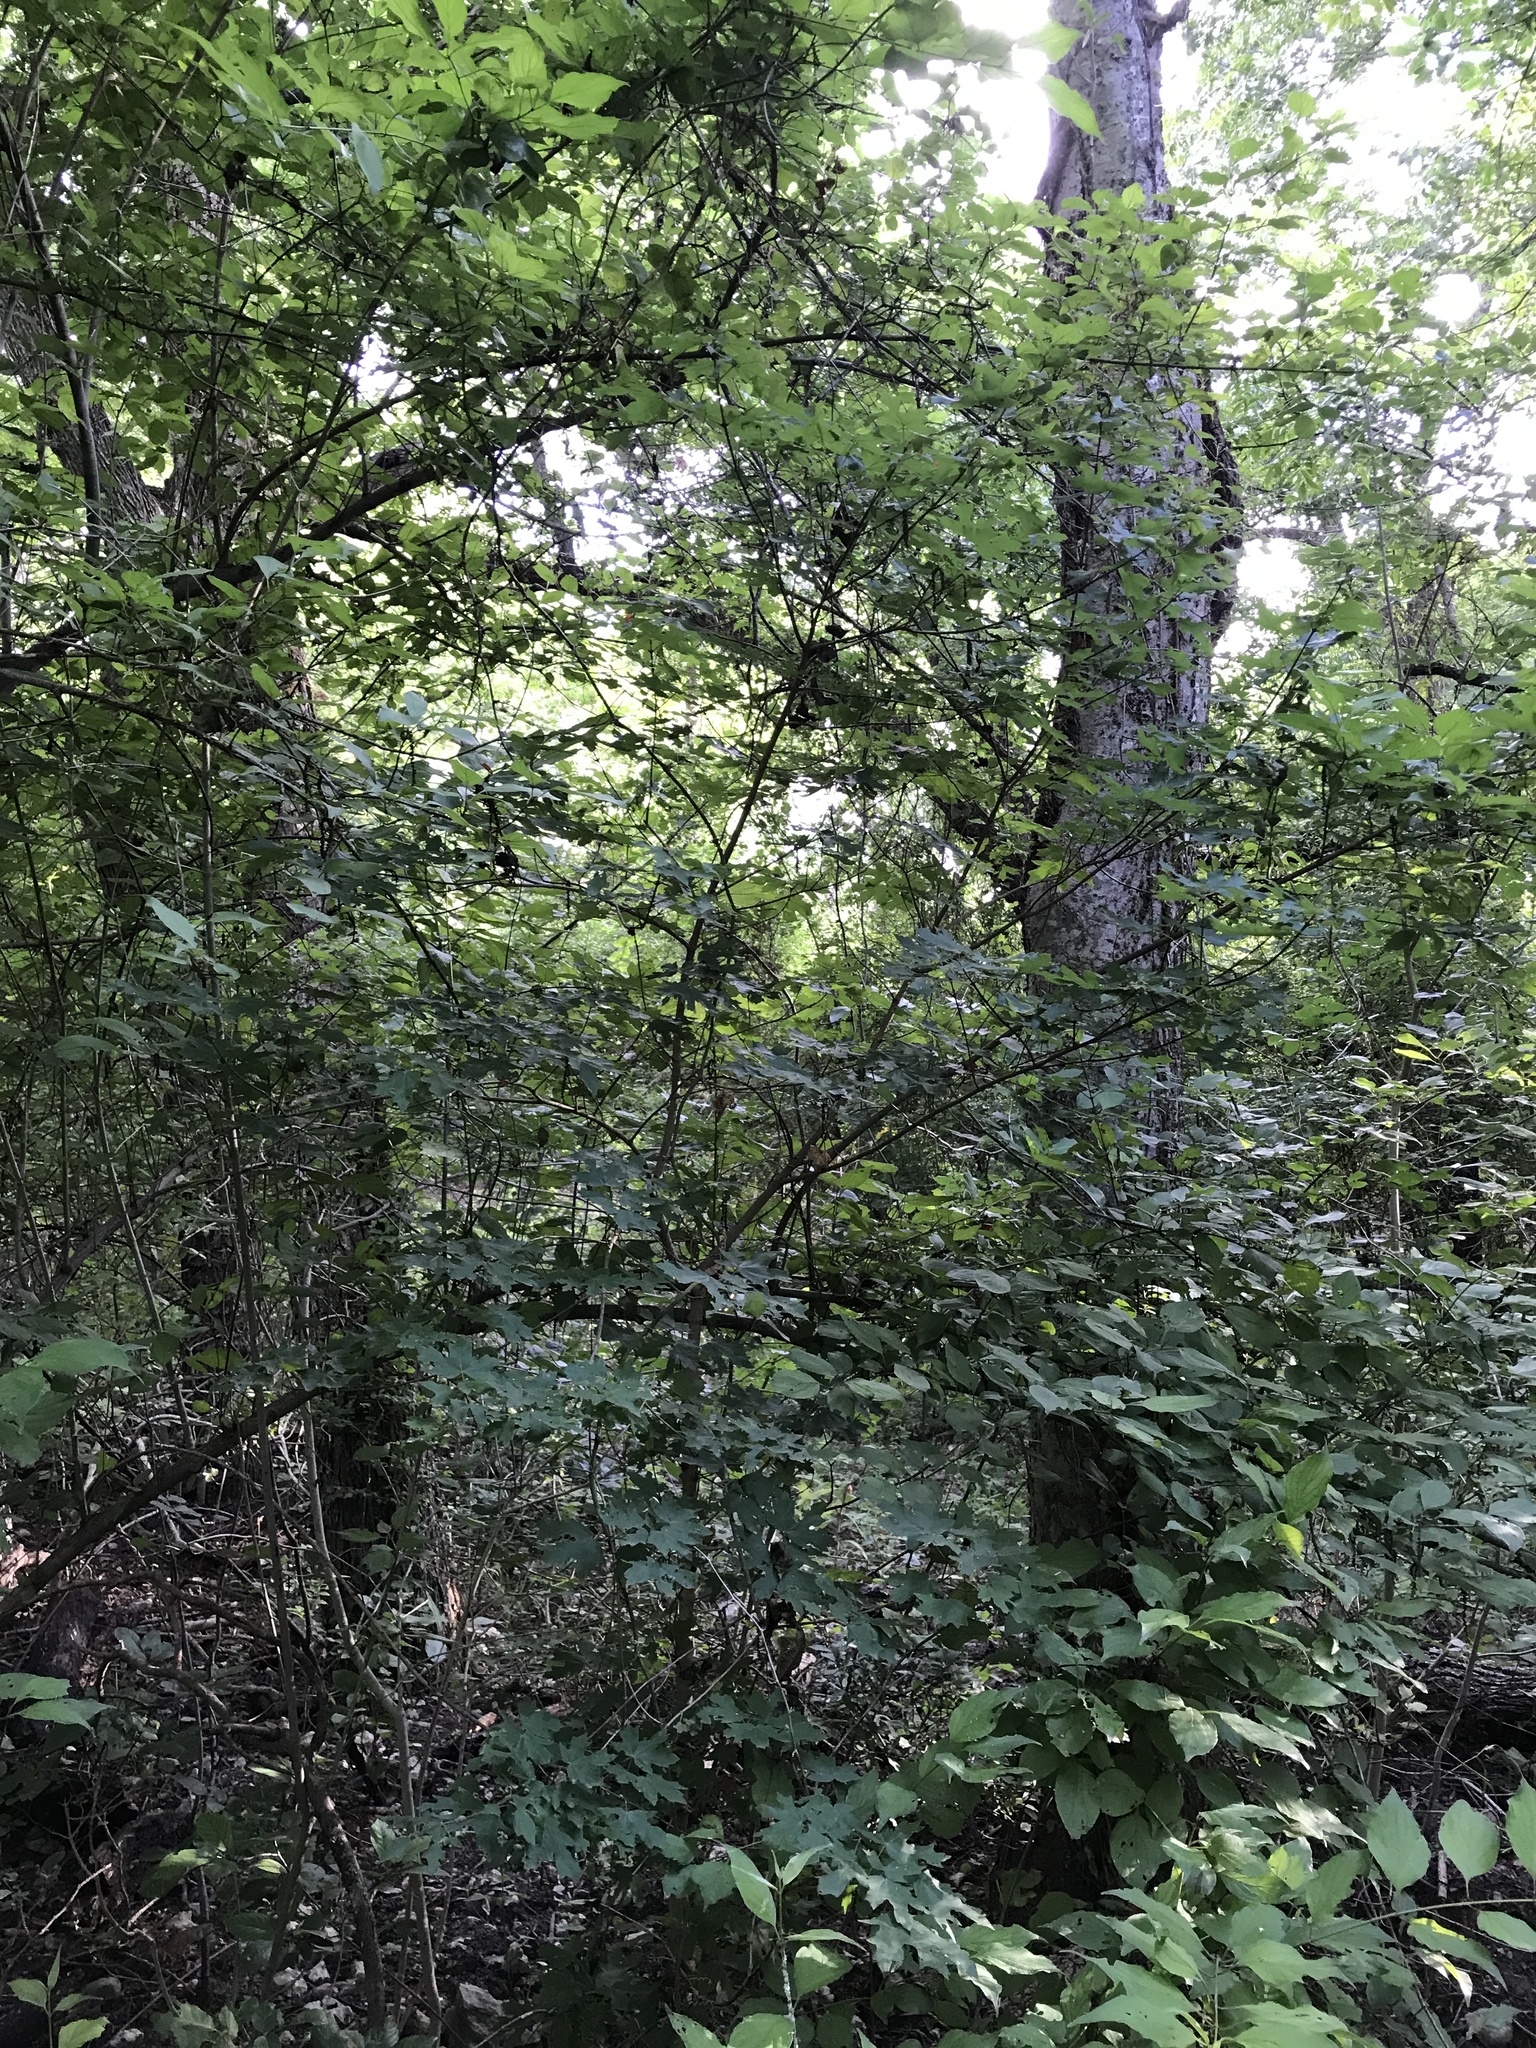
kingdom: Plantae
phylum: Tracheophyta
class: Magnoliopsida
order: Sapindales
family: Sapindaceae
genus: Acer
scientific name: Acer grandidentatum
